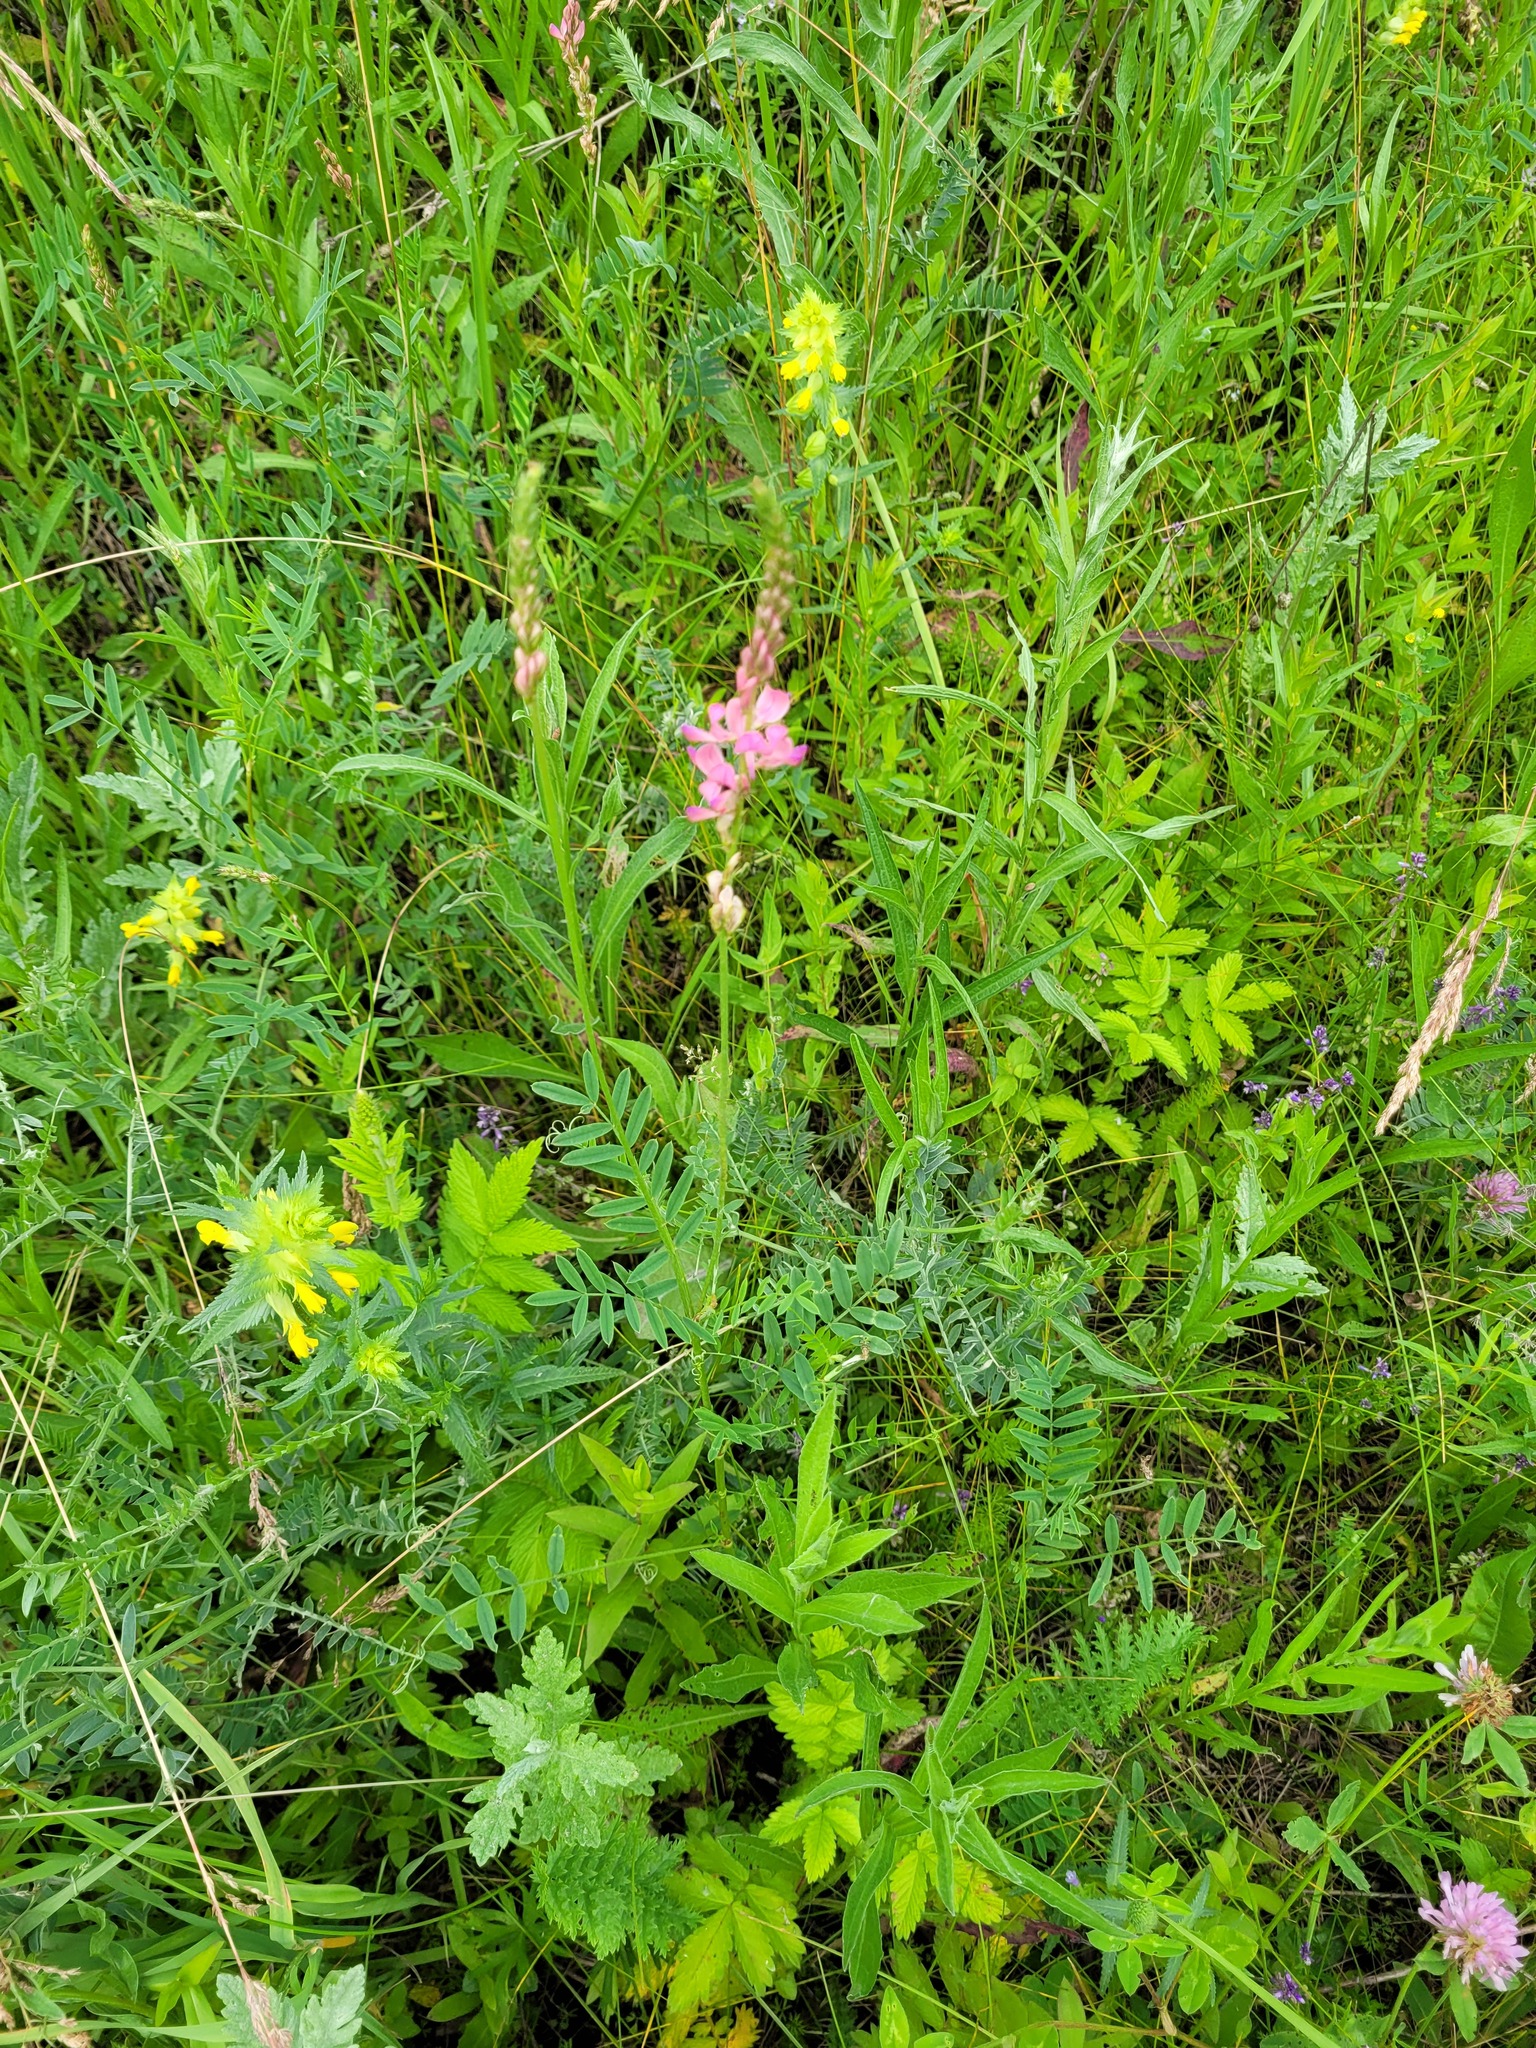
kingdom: Plantae
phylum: Tracheophyta
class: Magnoliopsida
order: Fabales
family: Fabaceae
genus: Onobrychis
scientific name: Onobrychis viciifolia
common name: Sainfoin
